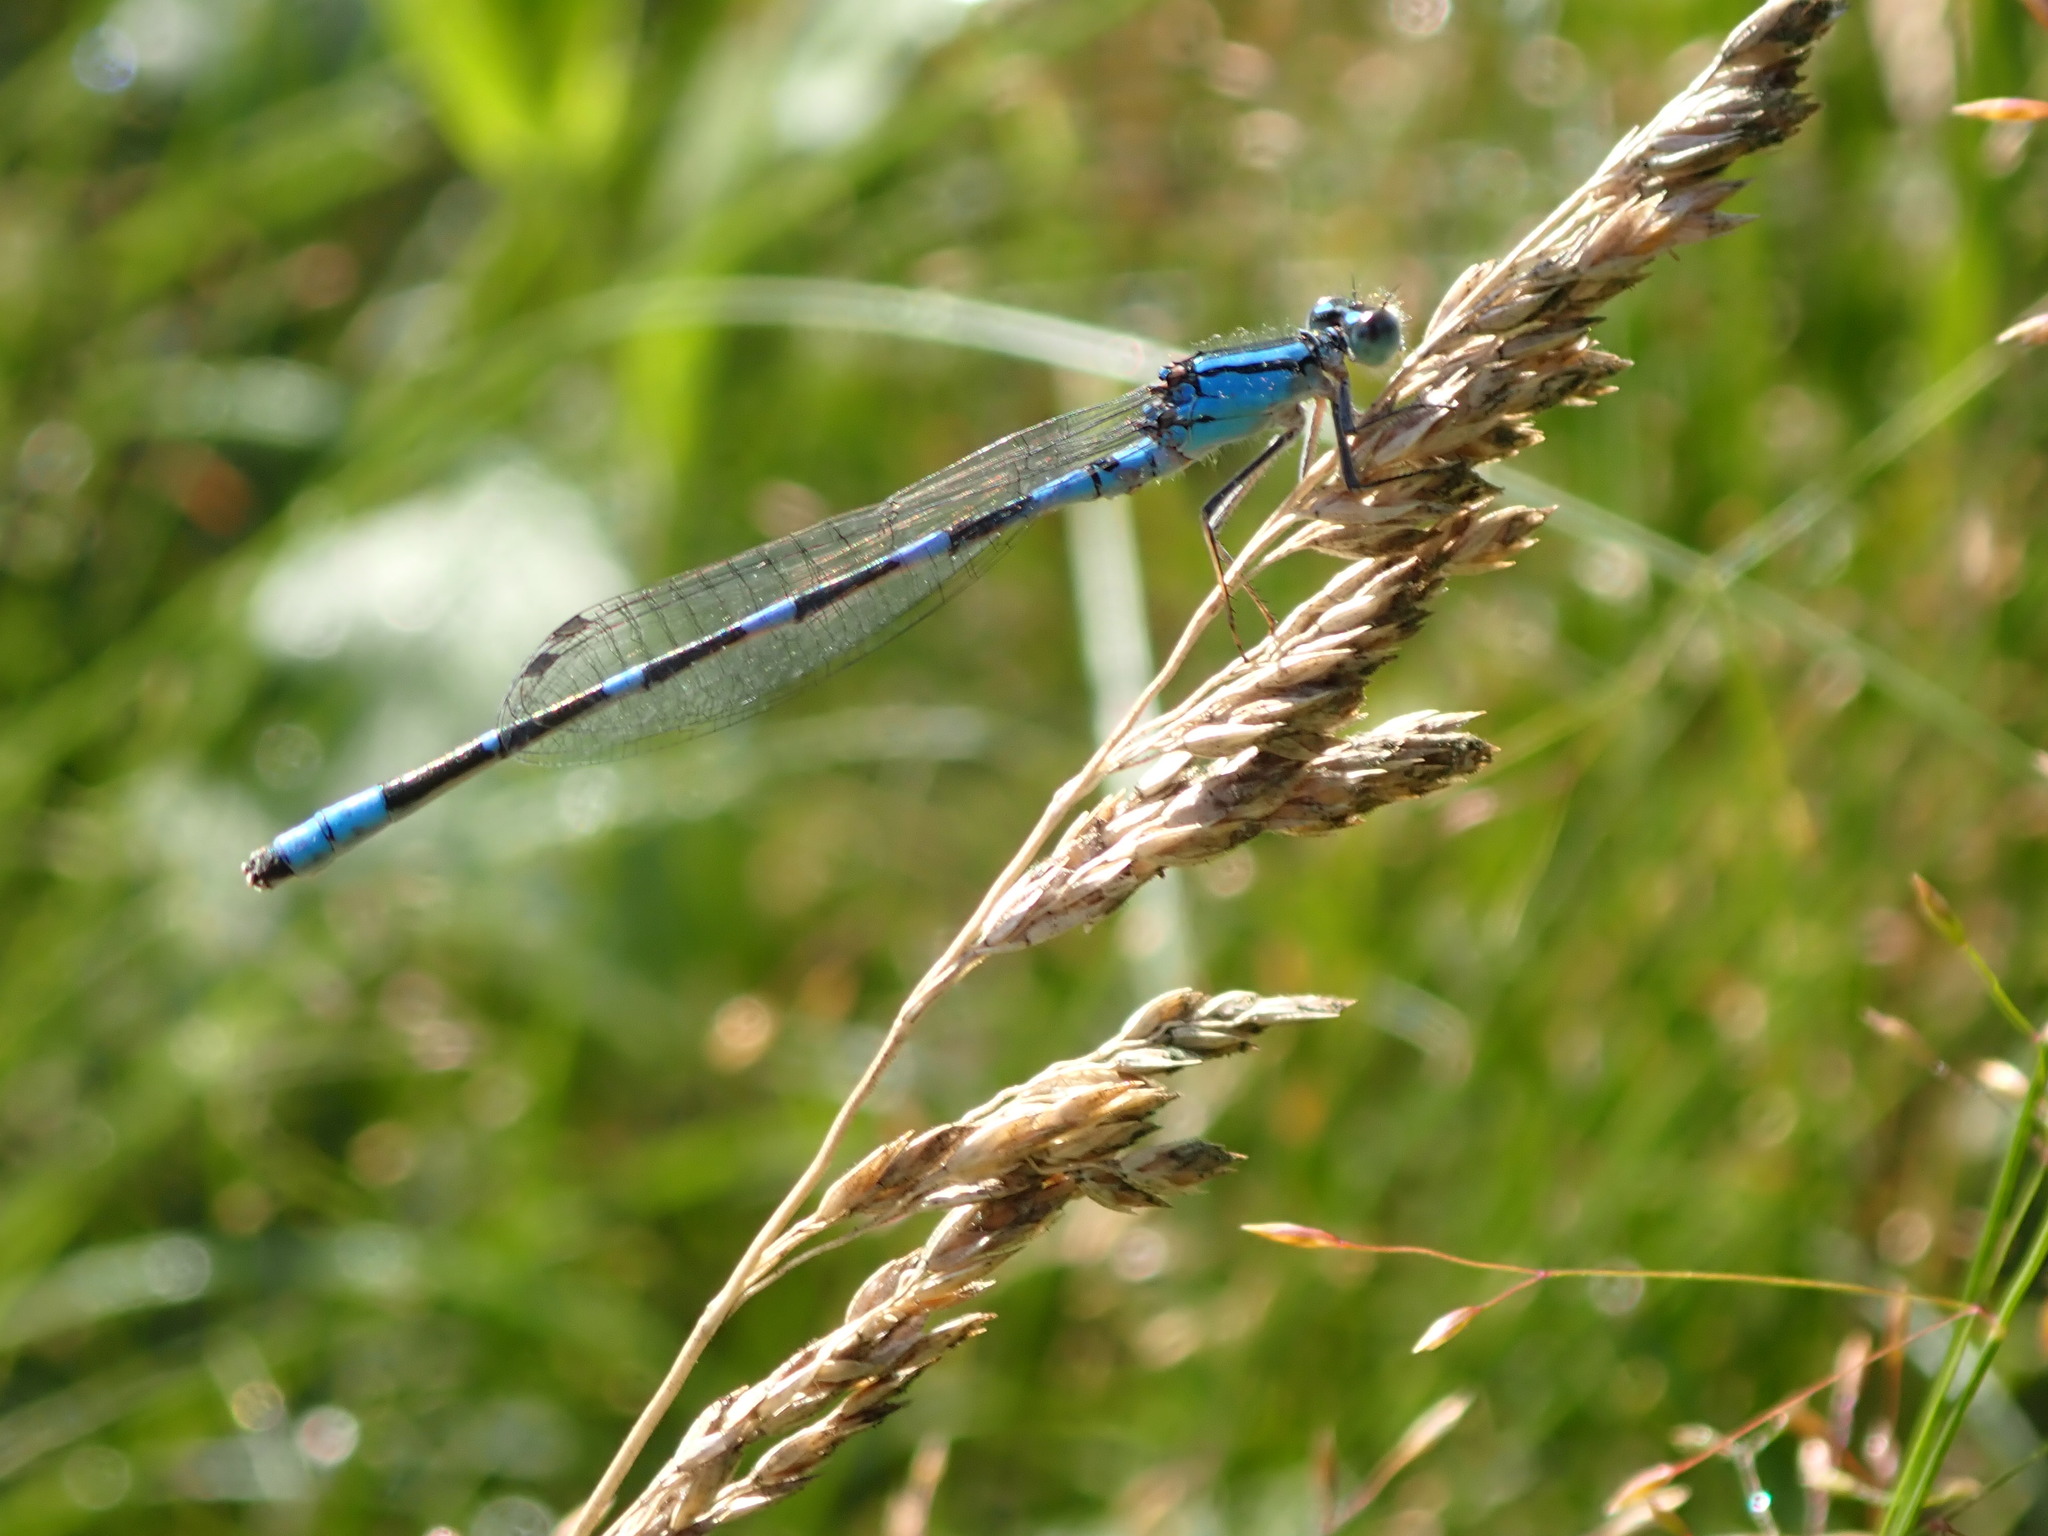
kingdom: Animalia
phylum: Arthropoda
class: Insecta
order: Odonata
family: Coenagrionidae
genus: Enallagma
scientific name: Enallagma carunculatum
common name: Tule bluet
